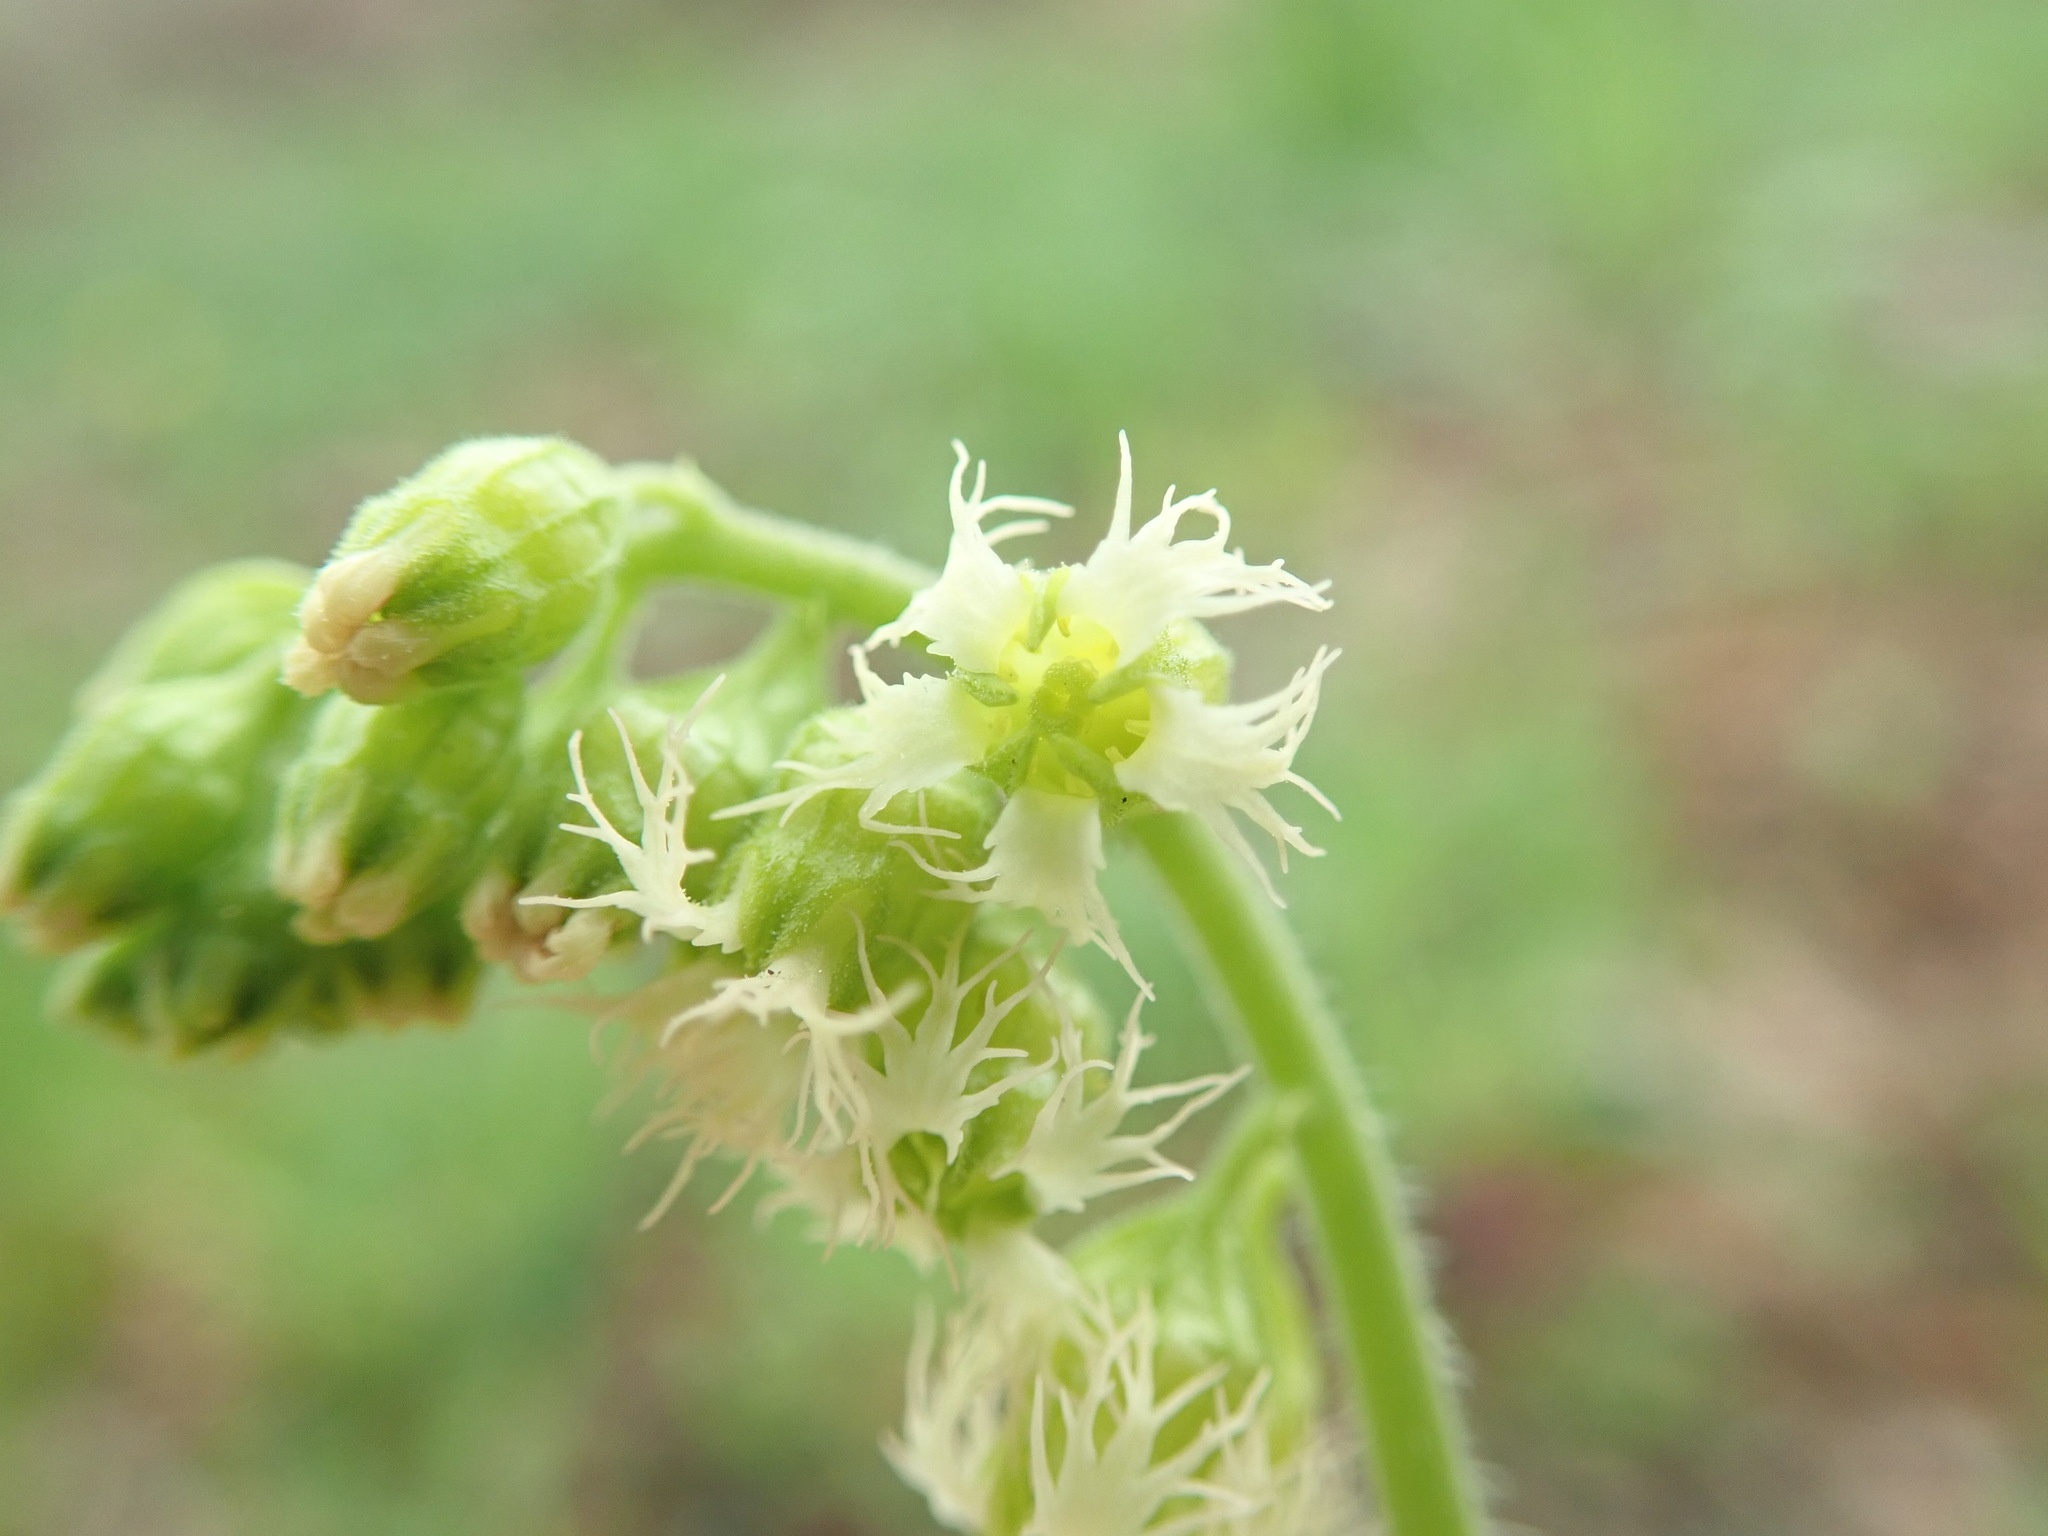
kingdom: Plantae
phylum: Tracheophyta
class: Magnoliopsida
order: Saxifragales
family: Saxifragaceae
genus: Tellima
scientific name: Tellima grandiflora
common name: Fringecups
